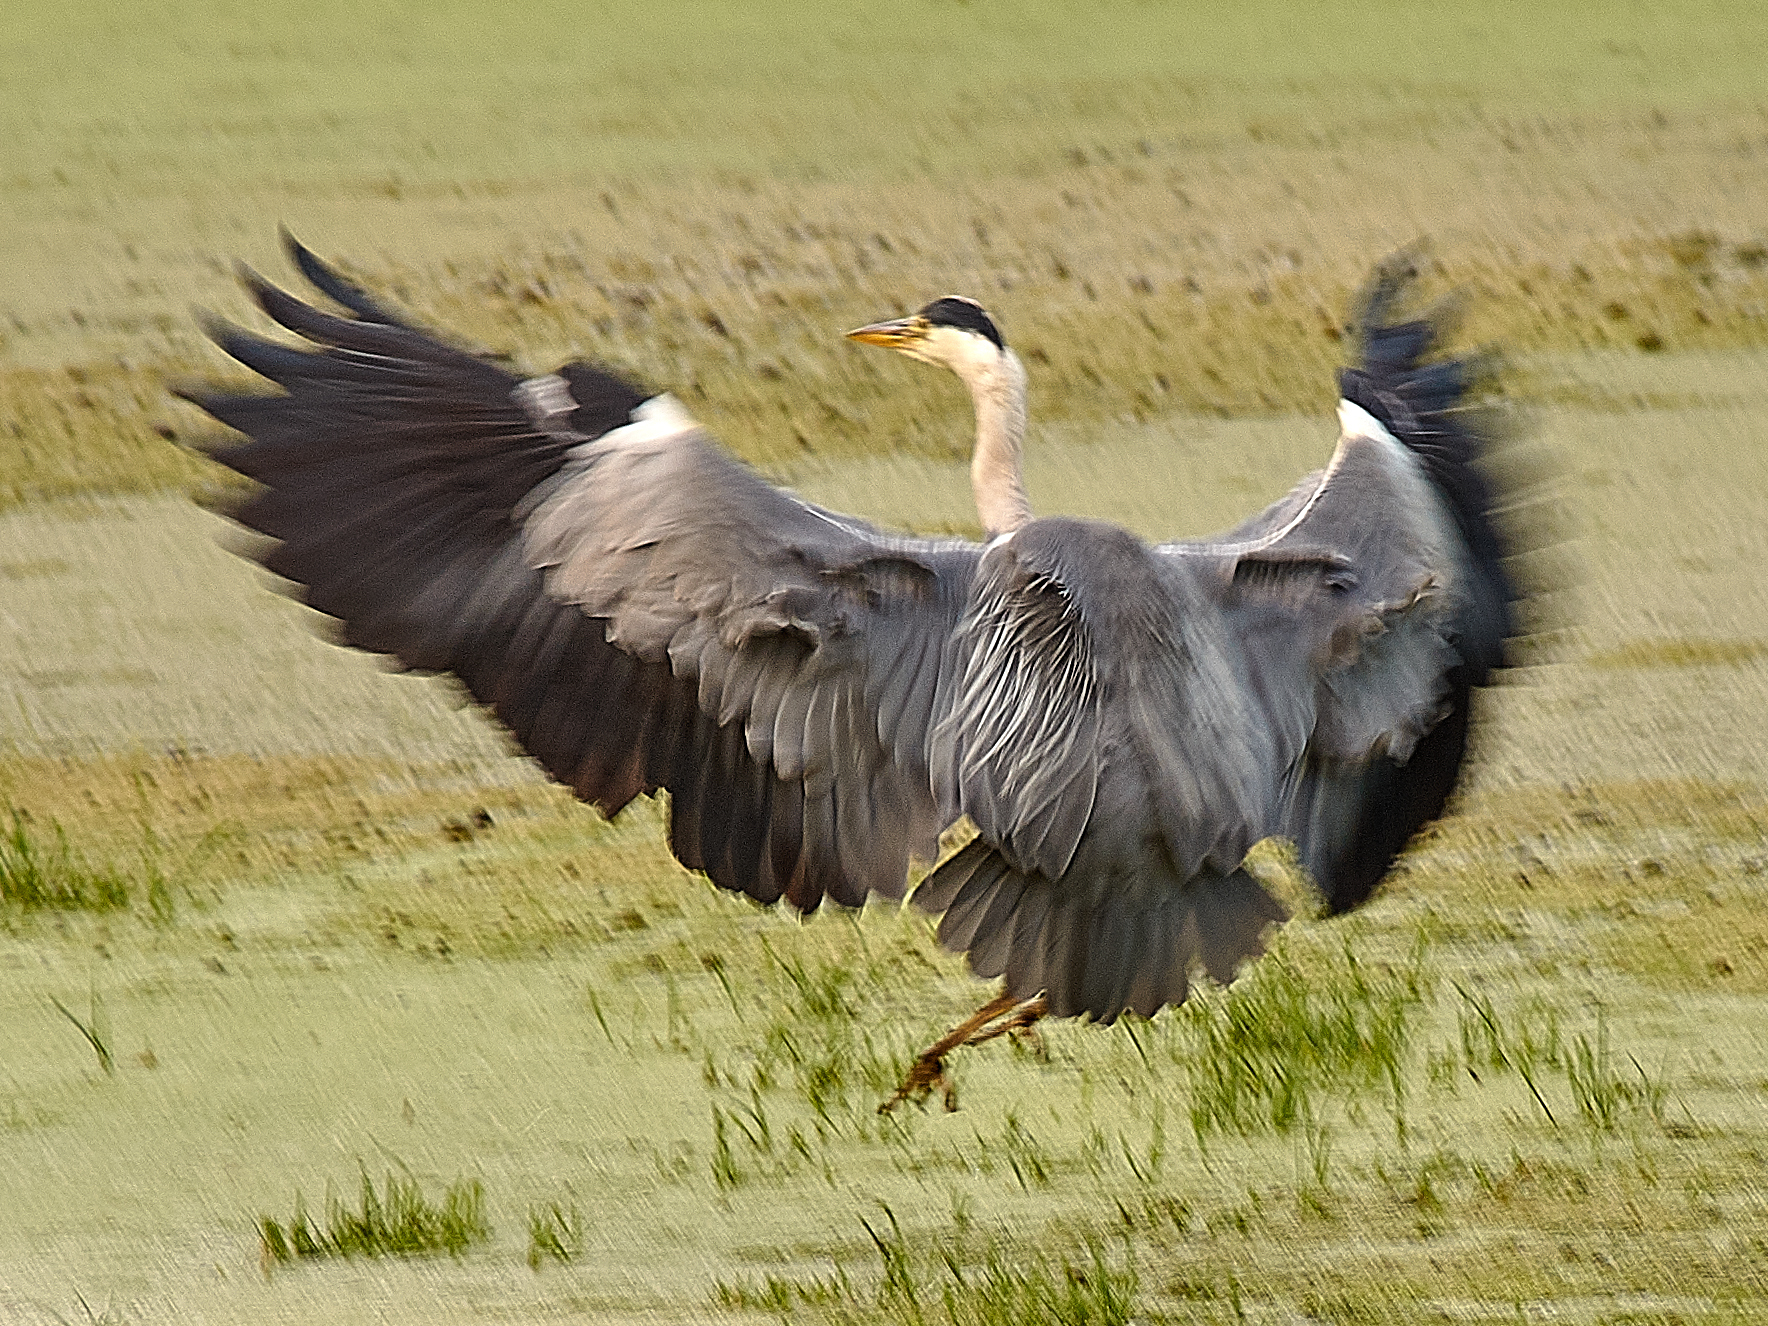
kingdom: Animalia
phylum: Chordata
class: Aves
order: Pelecaniformes
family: Ardeidae
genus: Ardea
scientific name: Ardea cinerea
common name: Grey heron
